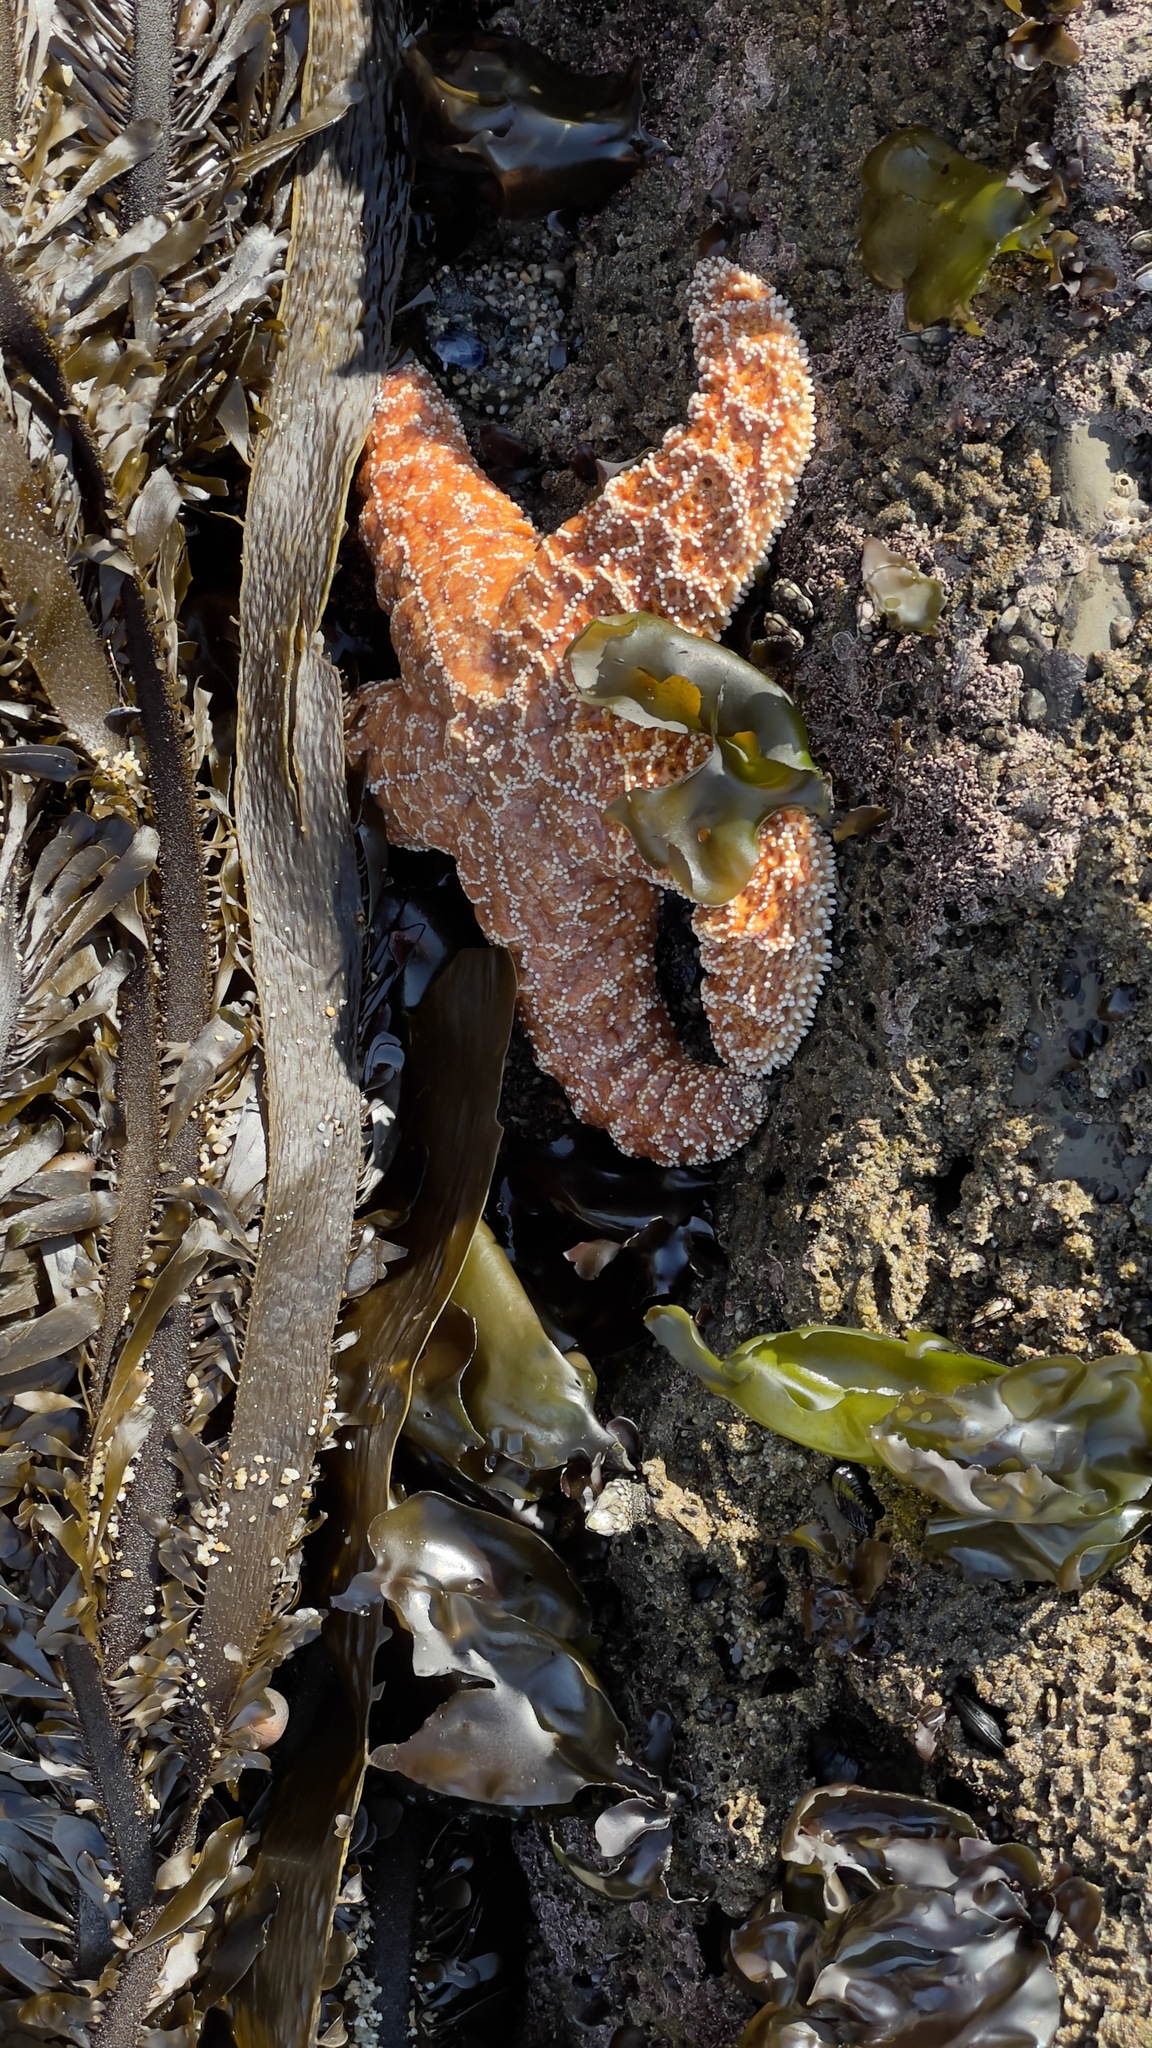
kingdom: Animalia
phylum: Echinodermata
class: Asteroidea
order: Forcipulatida
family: Asteriidae
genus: Pisaster
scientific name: Pisaster ochraceus
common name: Ochre stars
